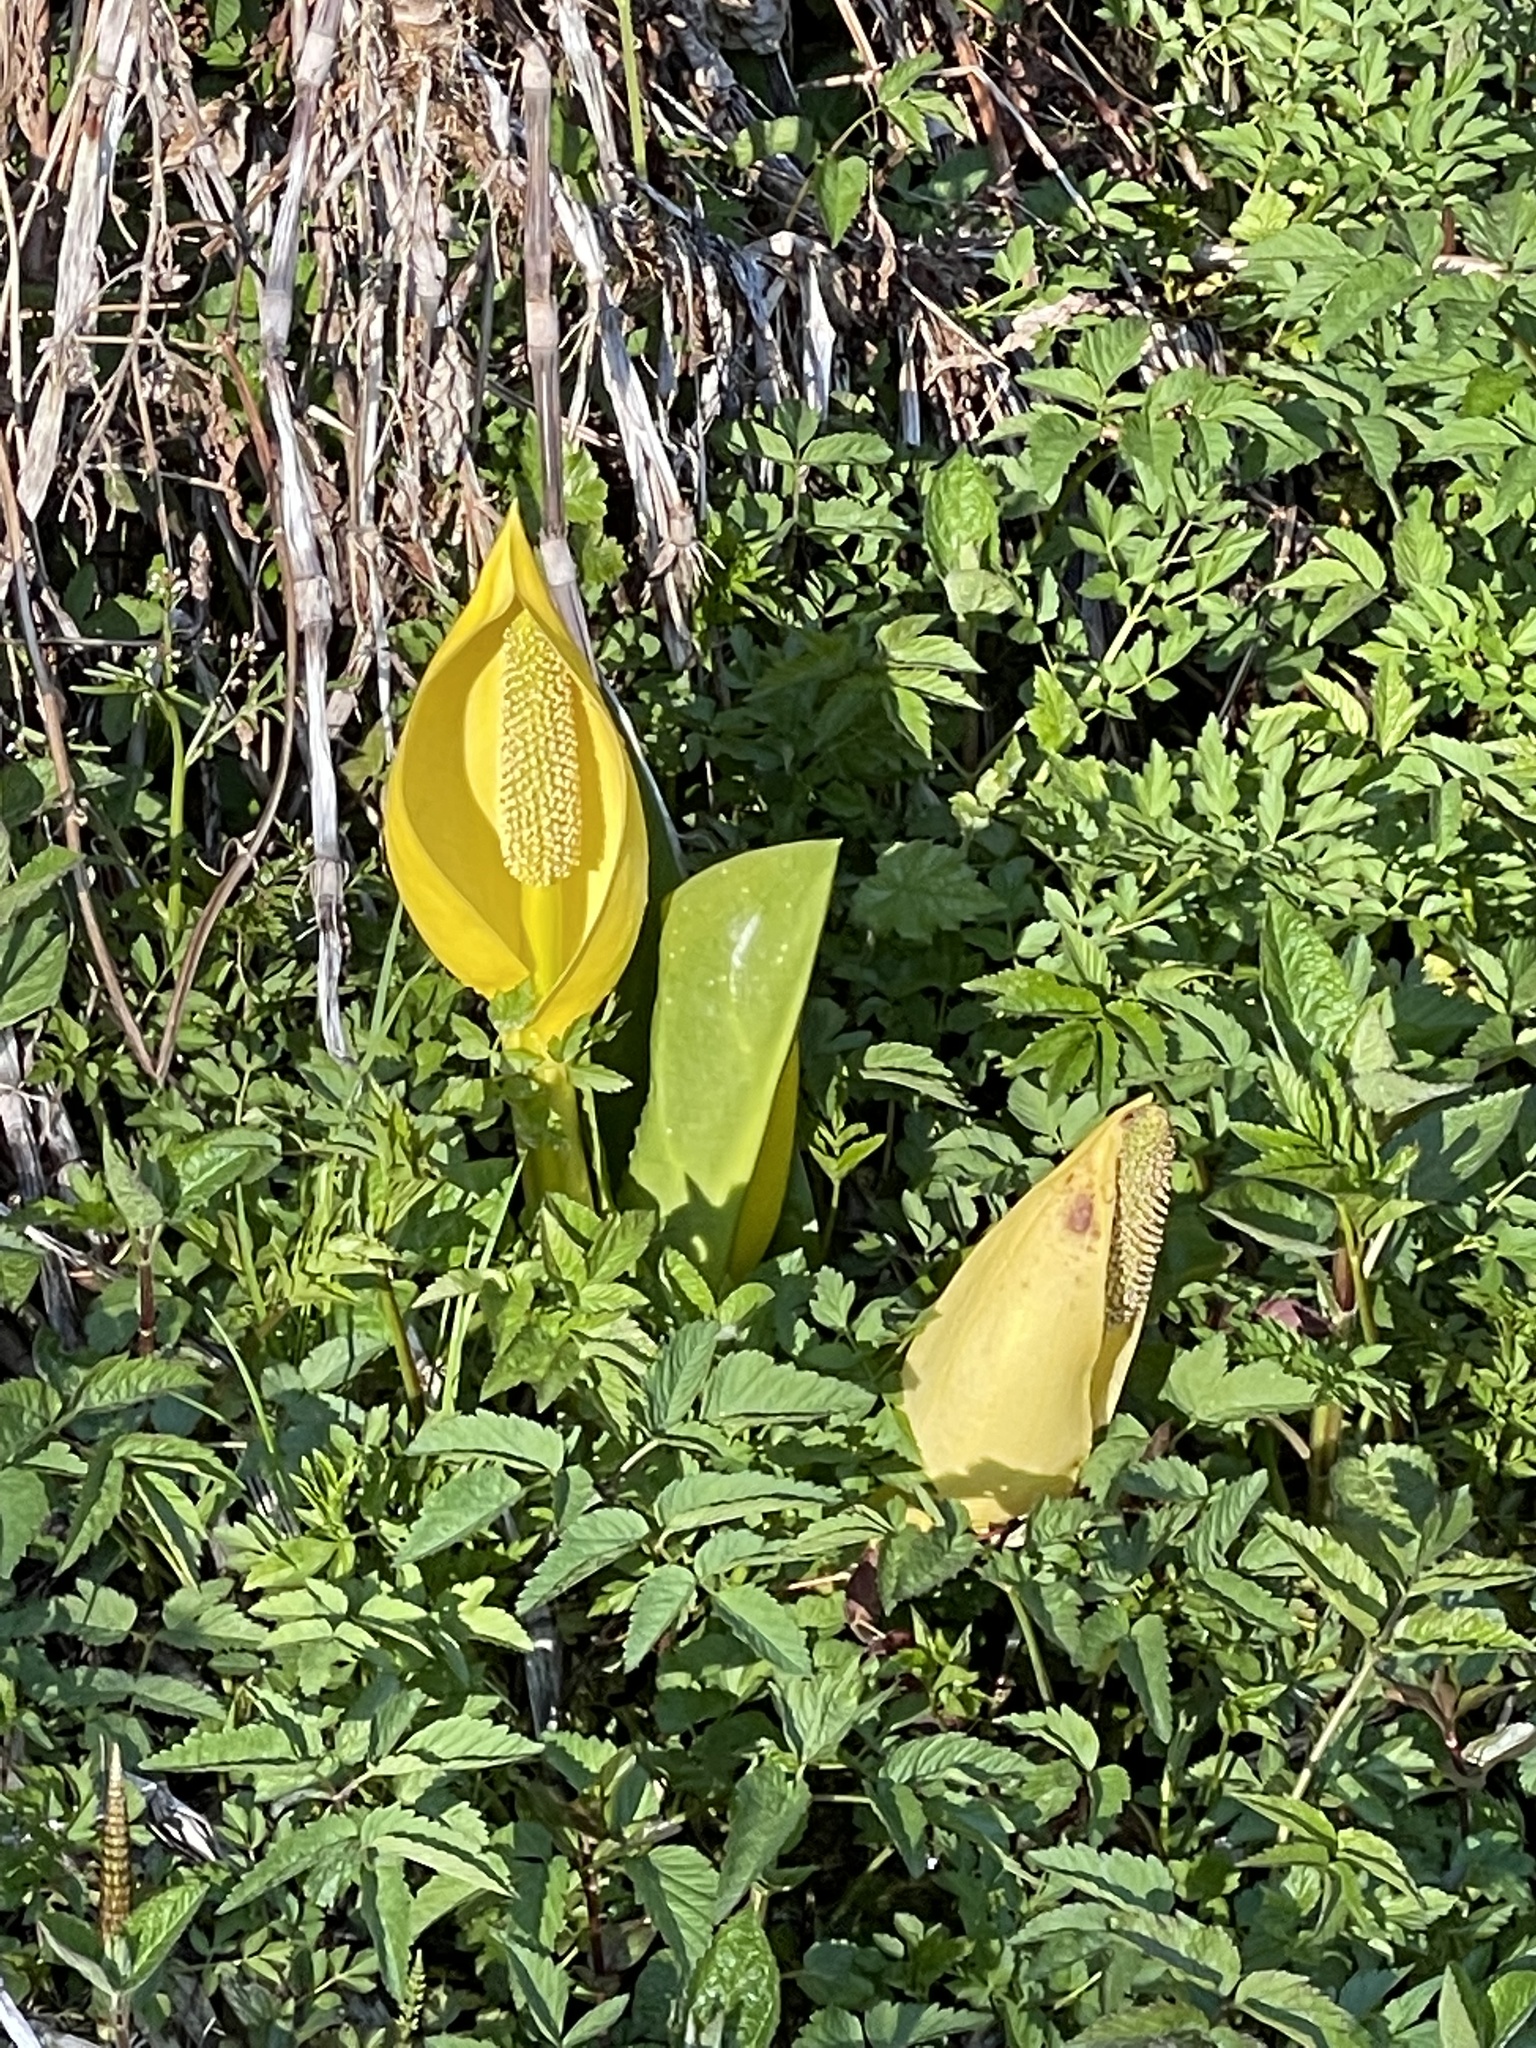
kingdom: Plantae
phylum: Tracheophyta
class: Liliopsida
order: Alismatales
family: Araceae
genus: Lysichiton
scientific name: Lysichiton americanus
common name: American skunk cabbage
